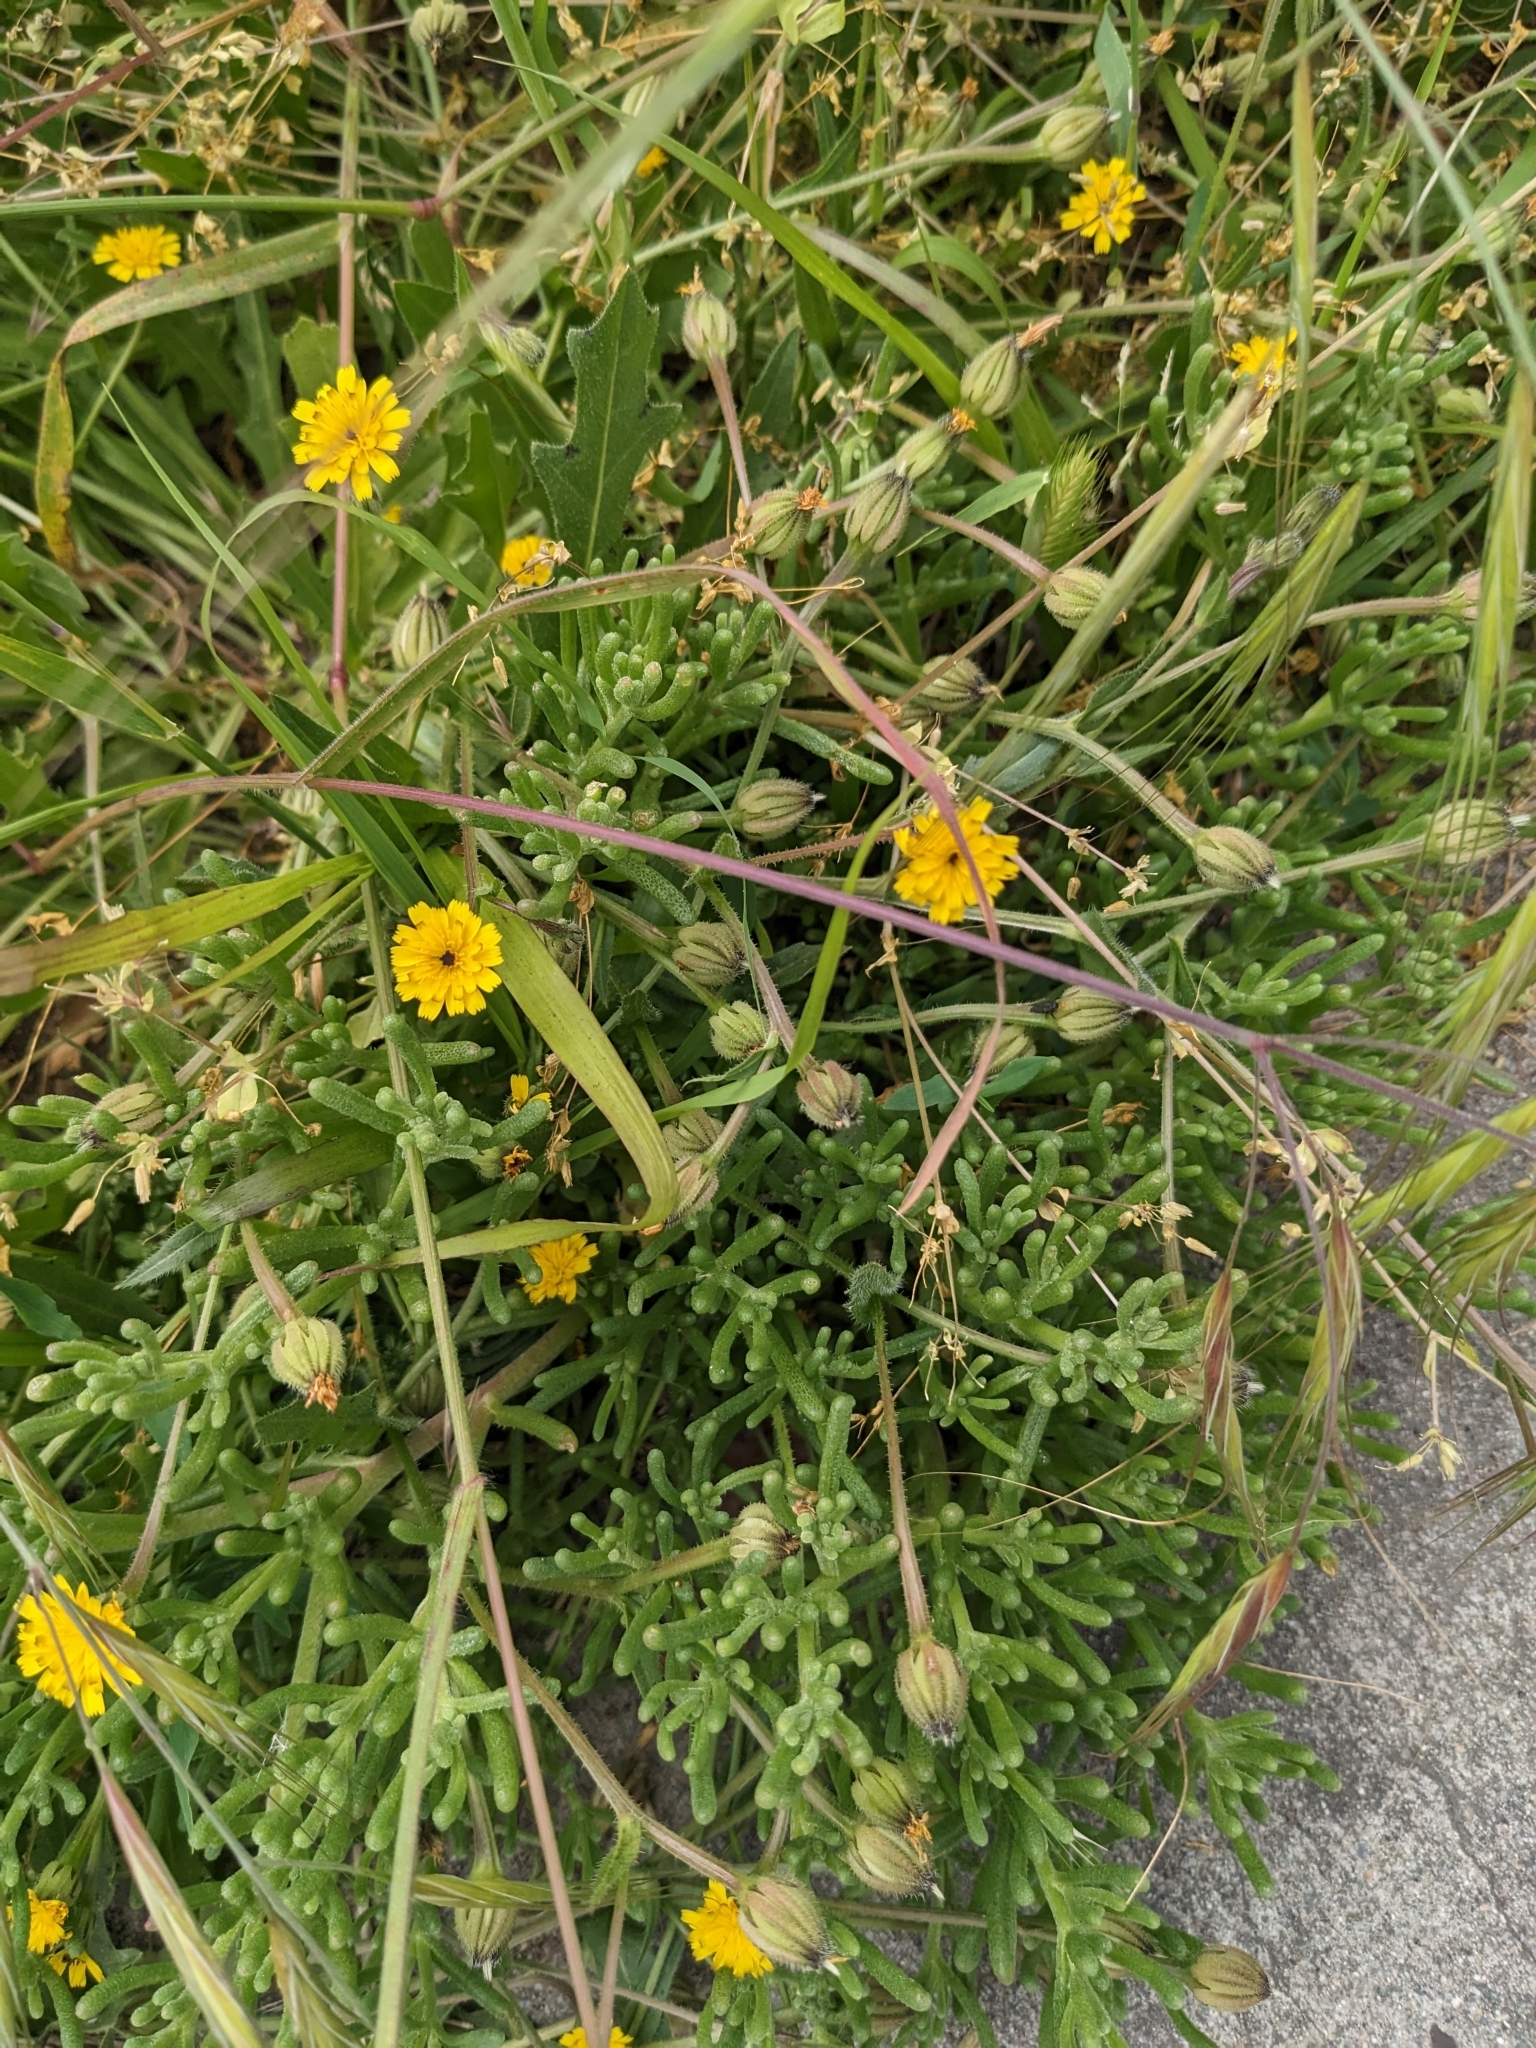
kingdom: Plantae
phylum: Tracheophyta
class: Magnoliopsida
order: Asterales
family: Asteraceae
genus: Hedypnois
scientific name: Hedypnois rhagadioloides
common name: Cretan weed
